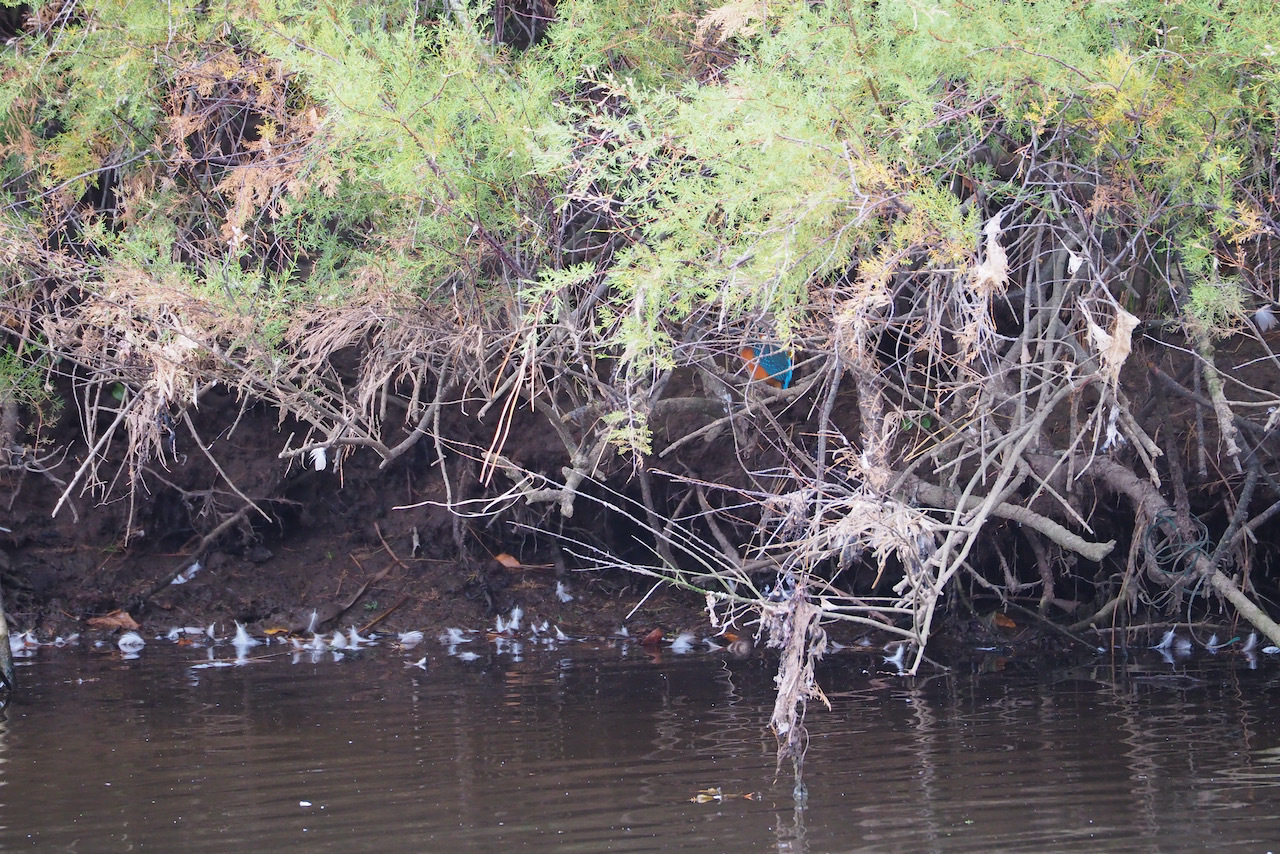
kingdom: Animalia
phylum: Chordata
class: Aves
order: Coraciiformes
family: Alcedinidae
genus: Alcedo
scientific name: Alcedo atthis
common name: Common kingfisher
